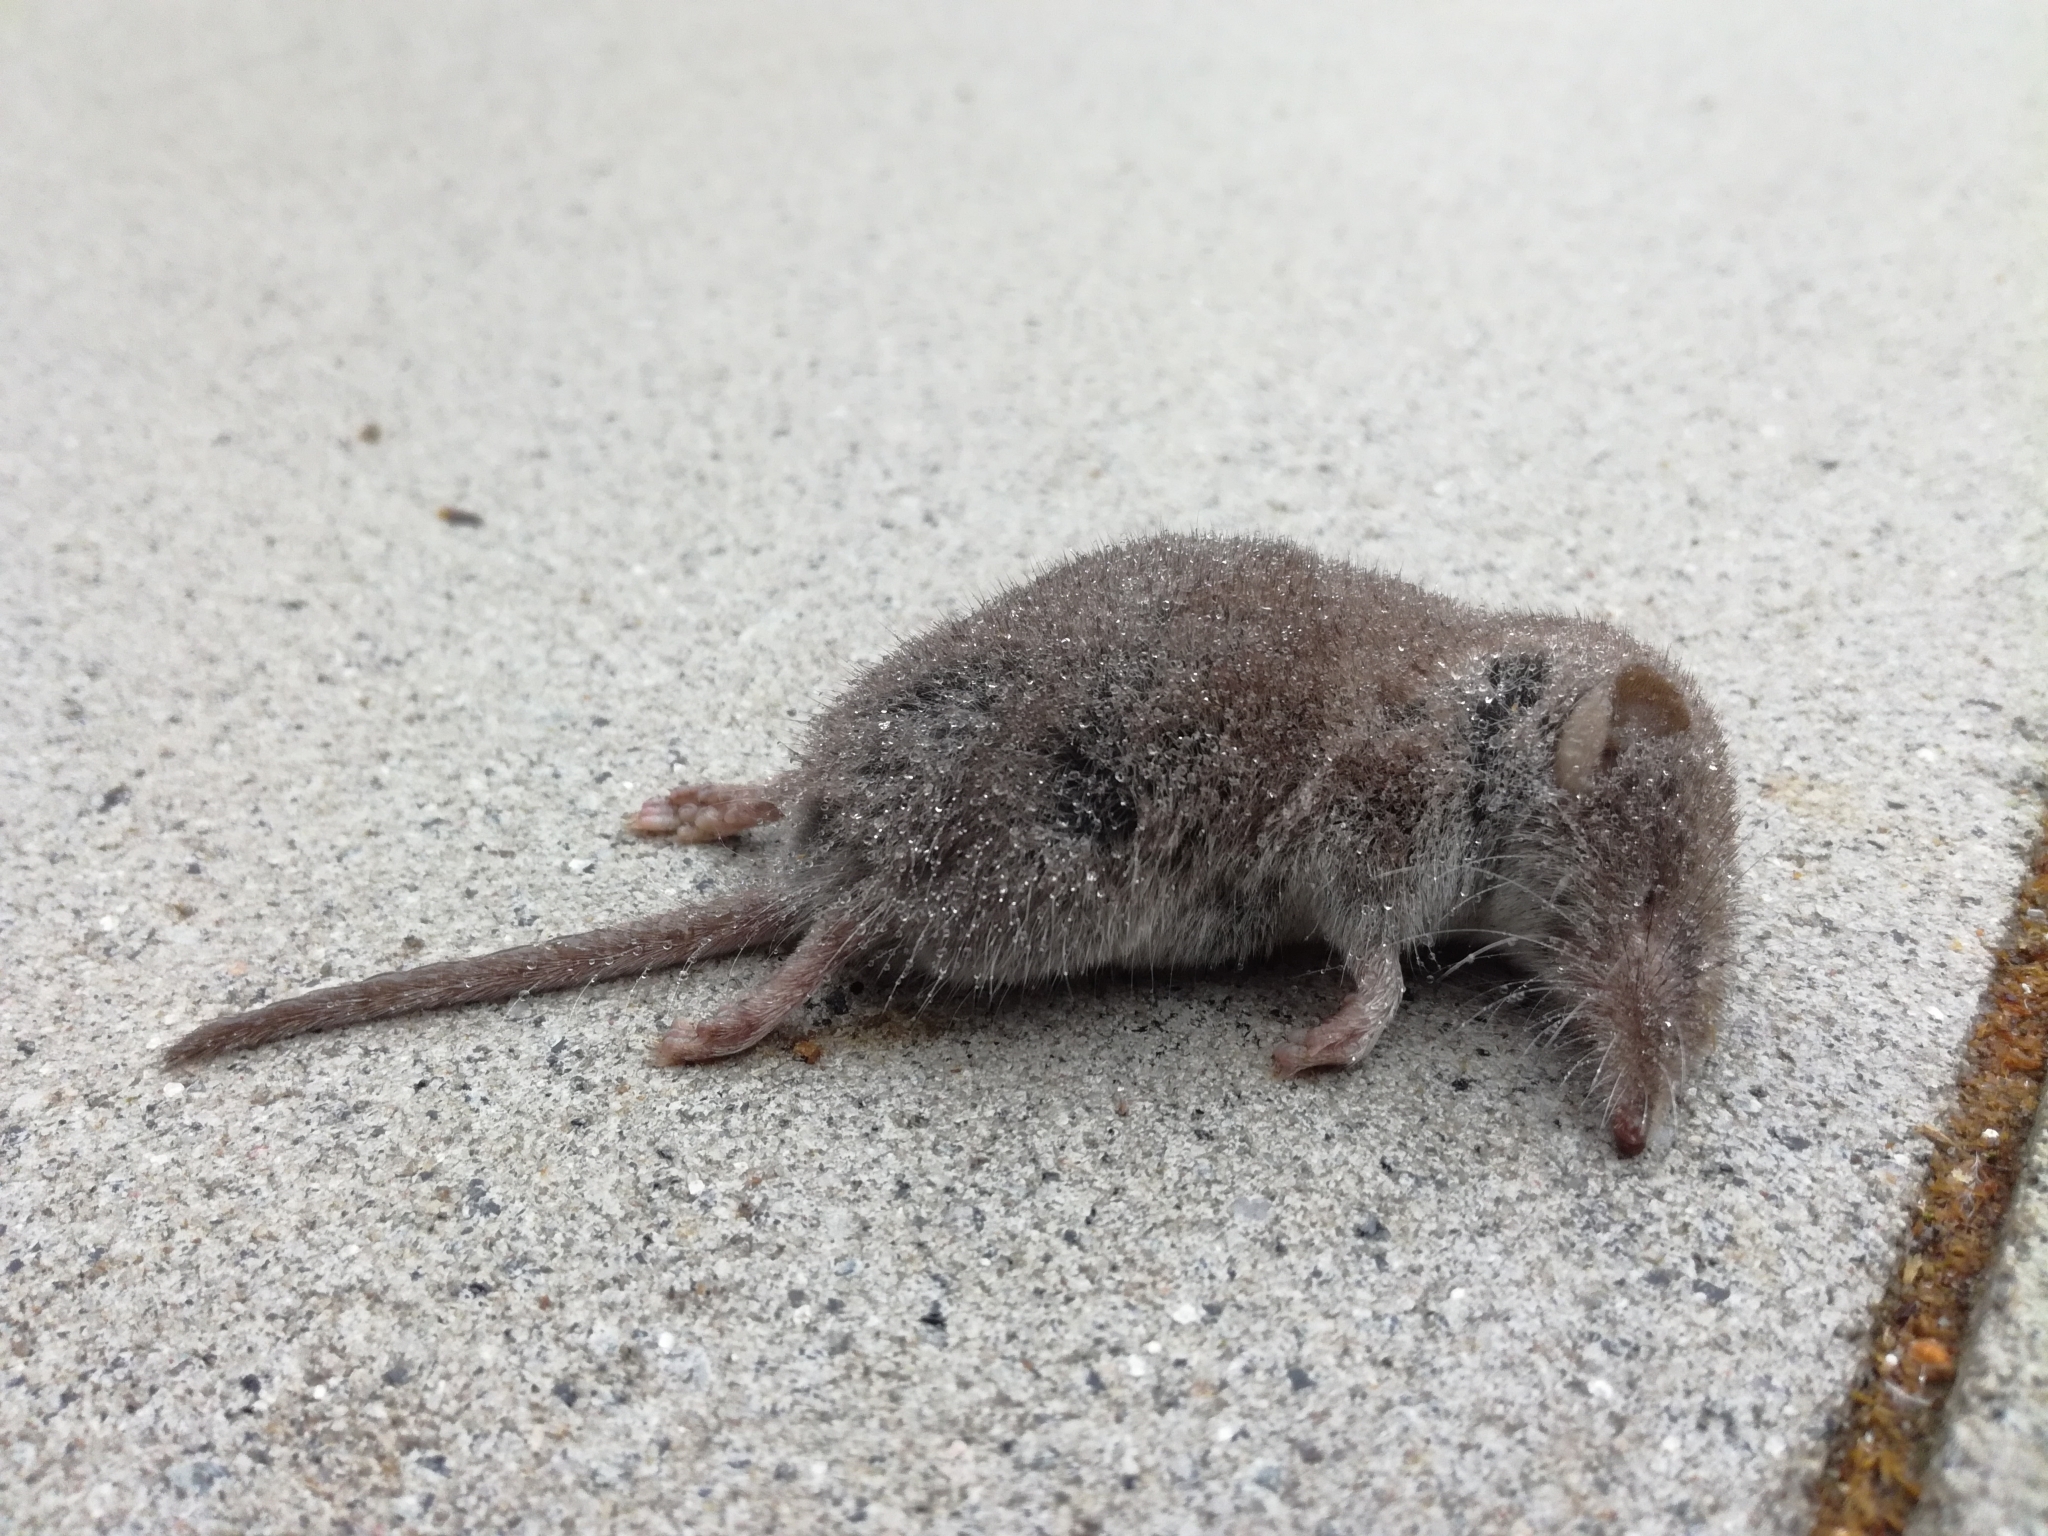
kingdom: Animalia
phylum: Chordata
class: Mammalia
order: Soricomorpha
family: Soricidae
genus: Crocidura
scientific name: Crocidura russula
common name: Greater white-toothed shrew
